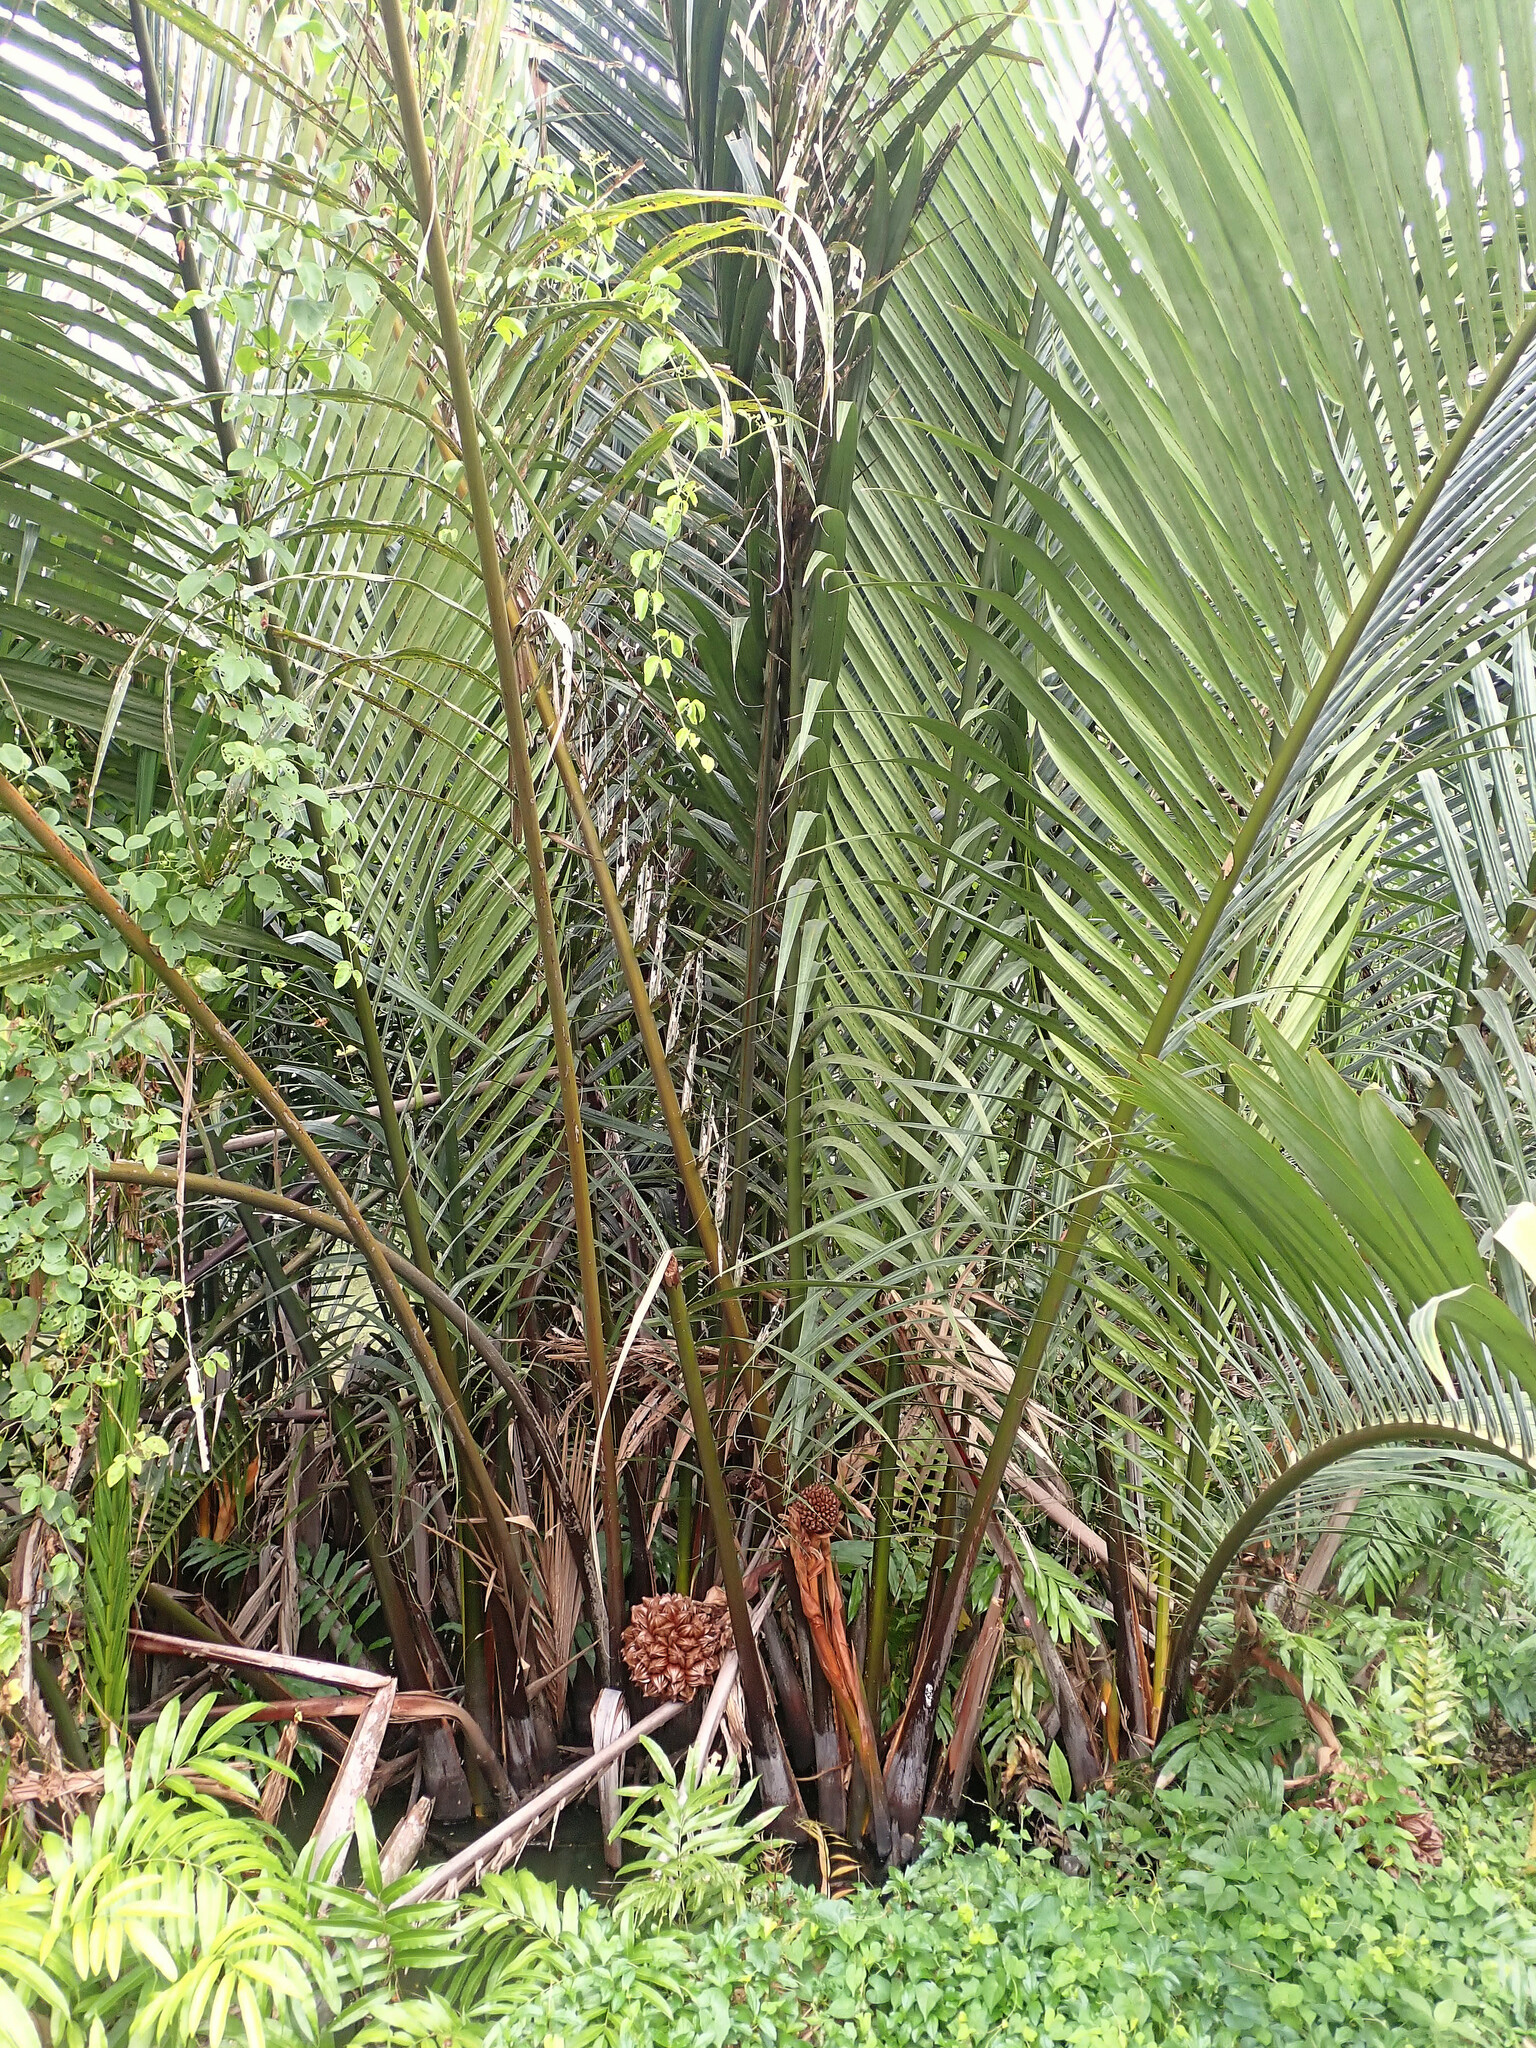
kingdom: Plantae
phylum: Tracheophyta
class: Liliopsida
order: Arecales
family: Arecaceae
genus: Nypa
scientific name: Nypa fruticans
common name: Mangrove palm
